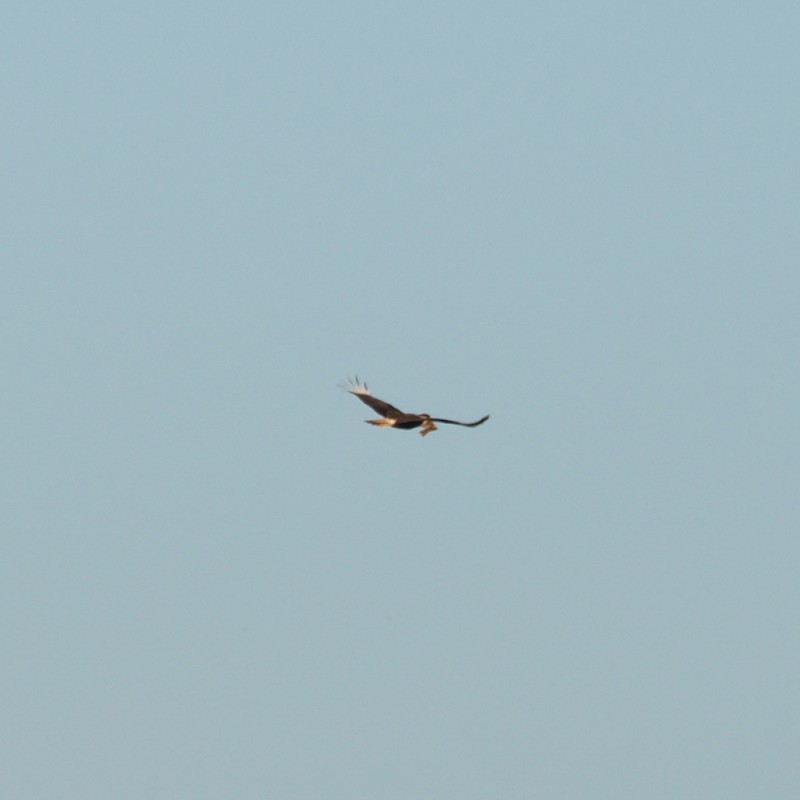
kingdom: Animalia
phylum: Chordata
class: Aves
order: Falconiformes
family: Falconidae
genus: Caracara
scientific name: Caracara plancus
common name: Southern caracara
